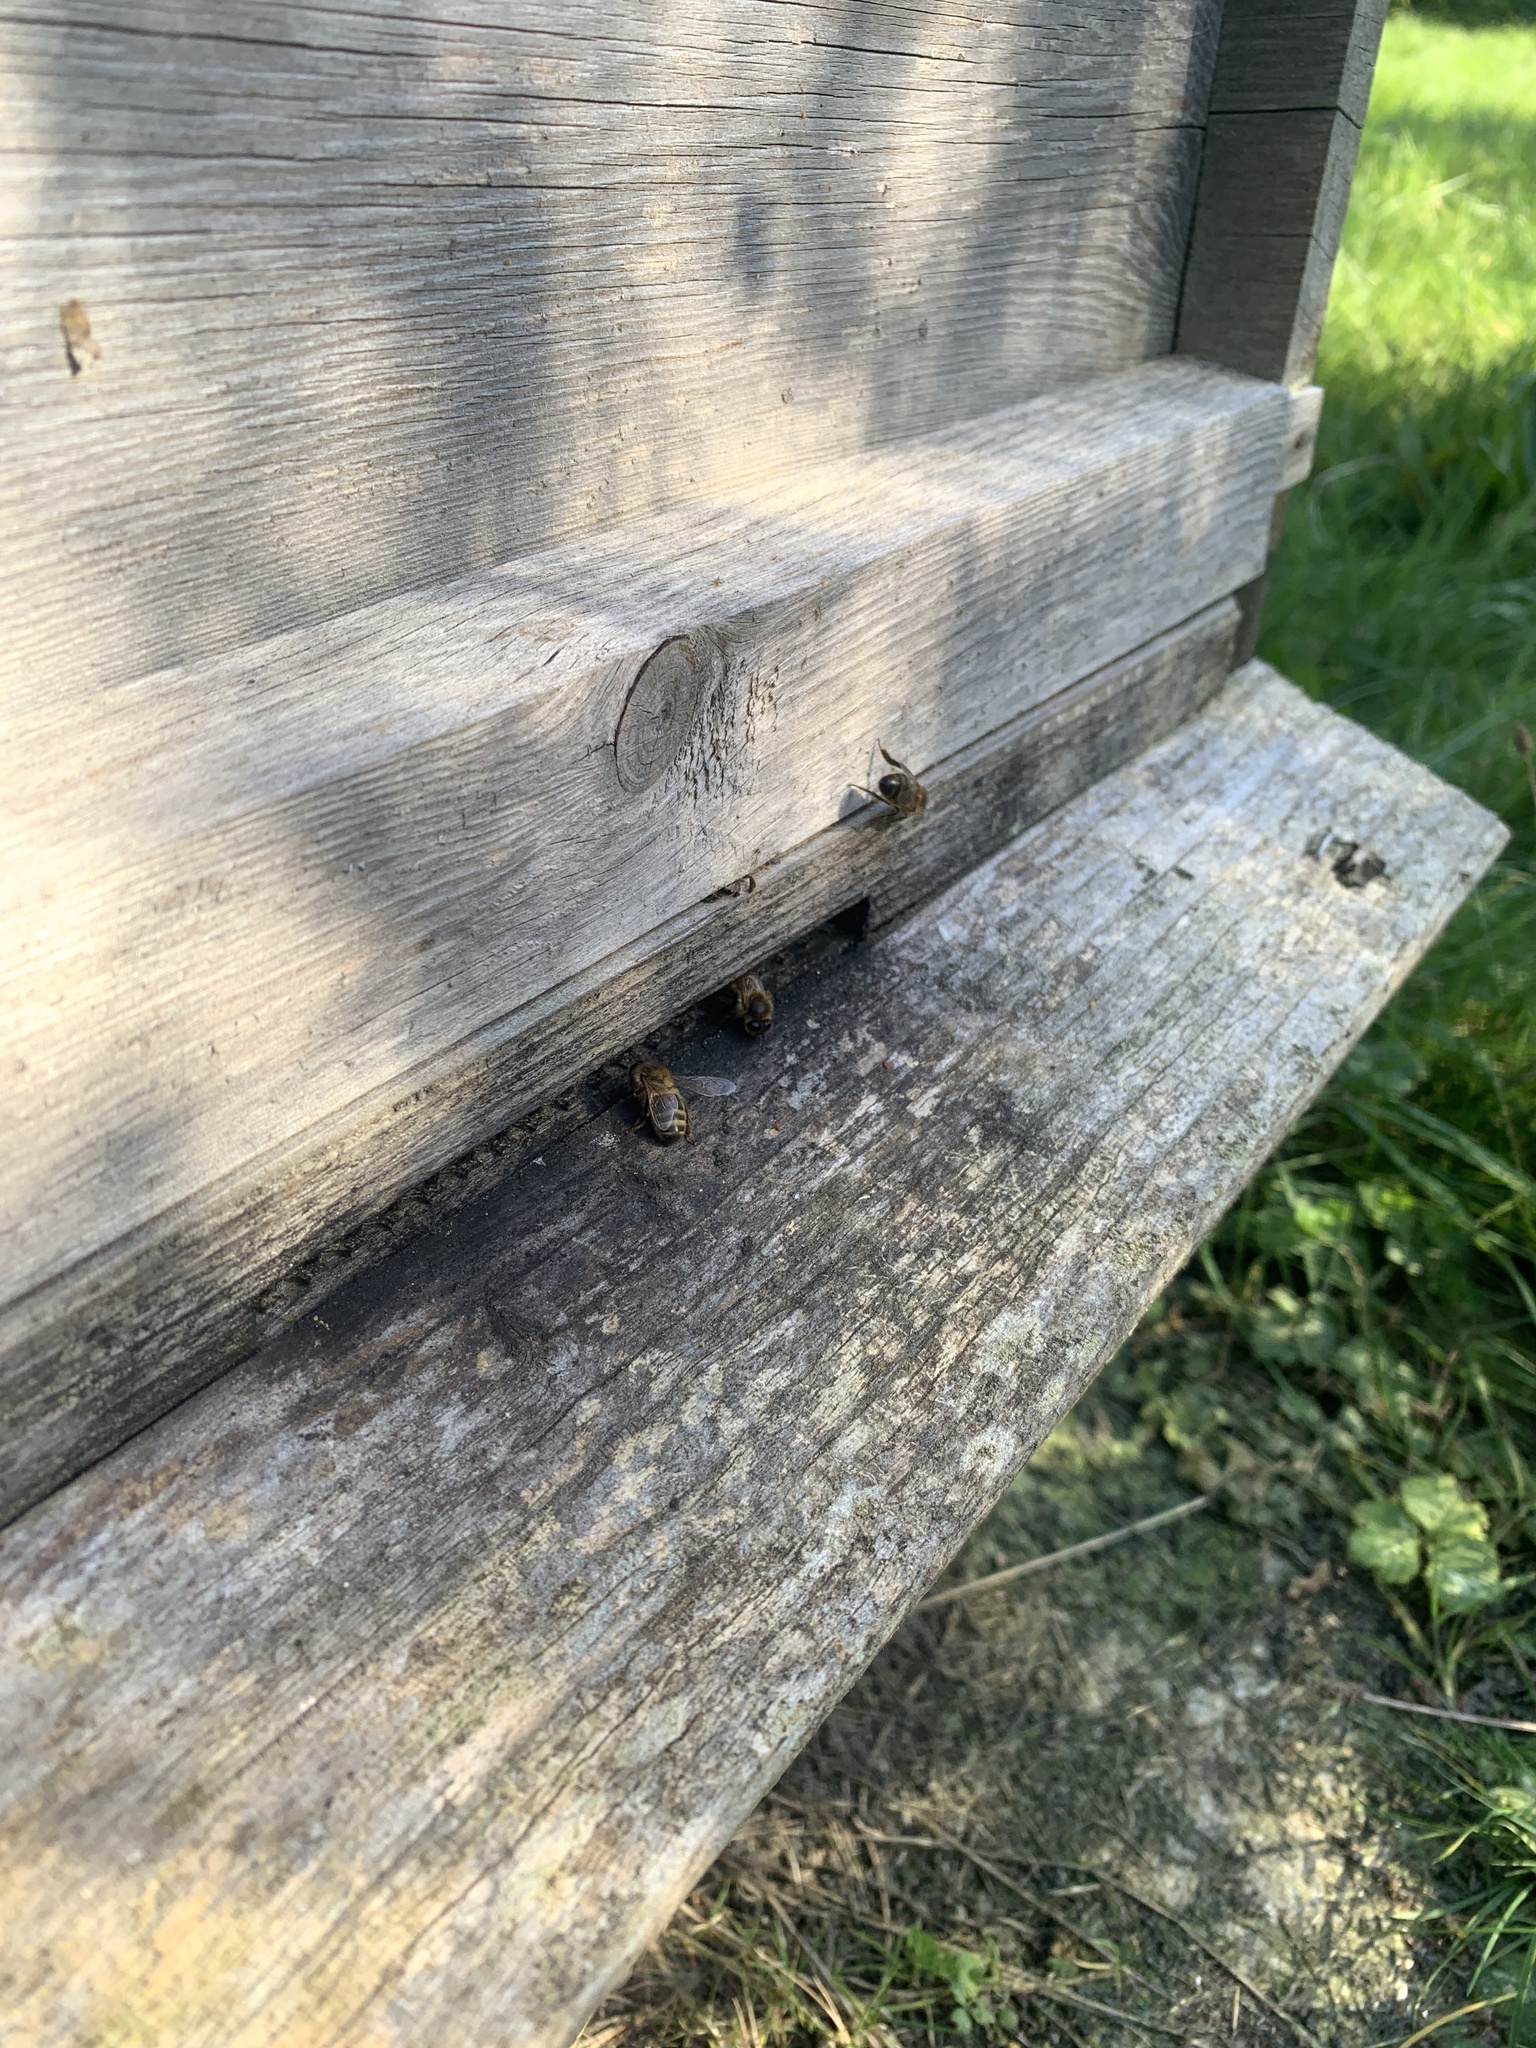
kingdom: Animalia
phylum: Arthropoda
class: Insecta
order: Hymenoptera
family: Apidae
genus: Apis
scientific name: Apis mellifera
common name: Honey bee
